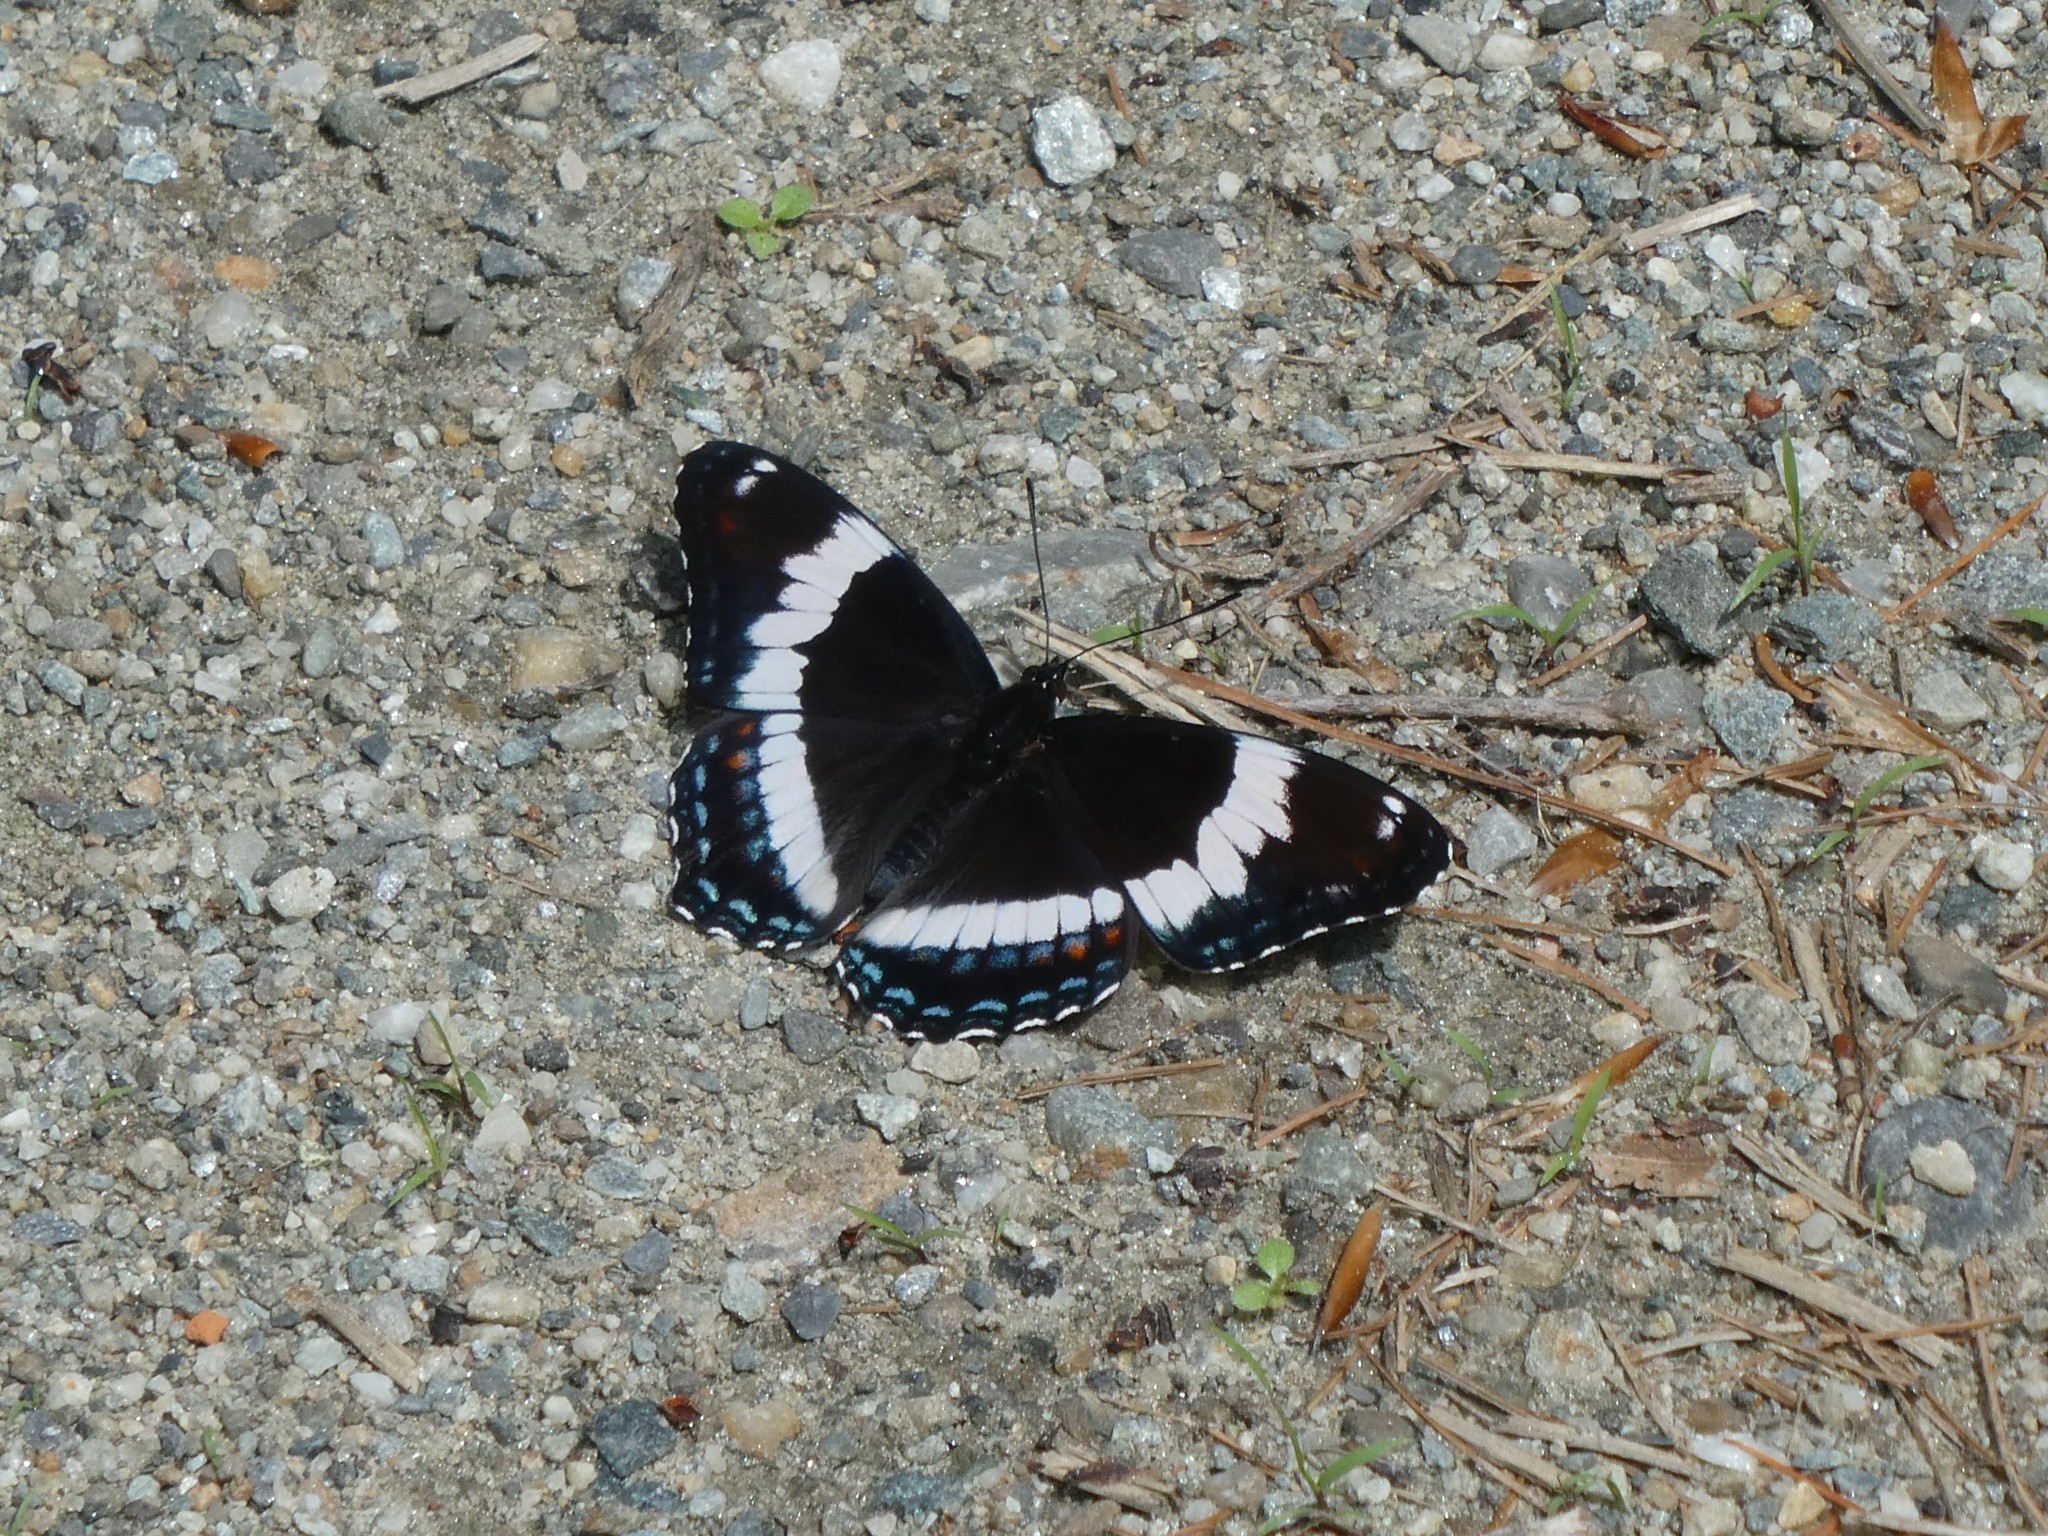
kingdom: Animalia
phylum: Arthropoda
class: Insecta
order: Lepidoptera
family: Nymphalidae
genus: Limenitis
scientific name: Limenitis arthemis
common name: Red-spotted admiral
